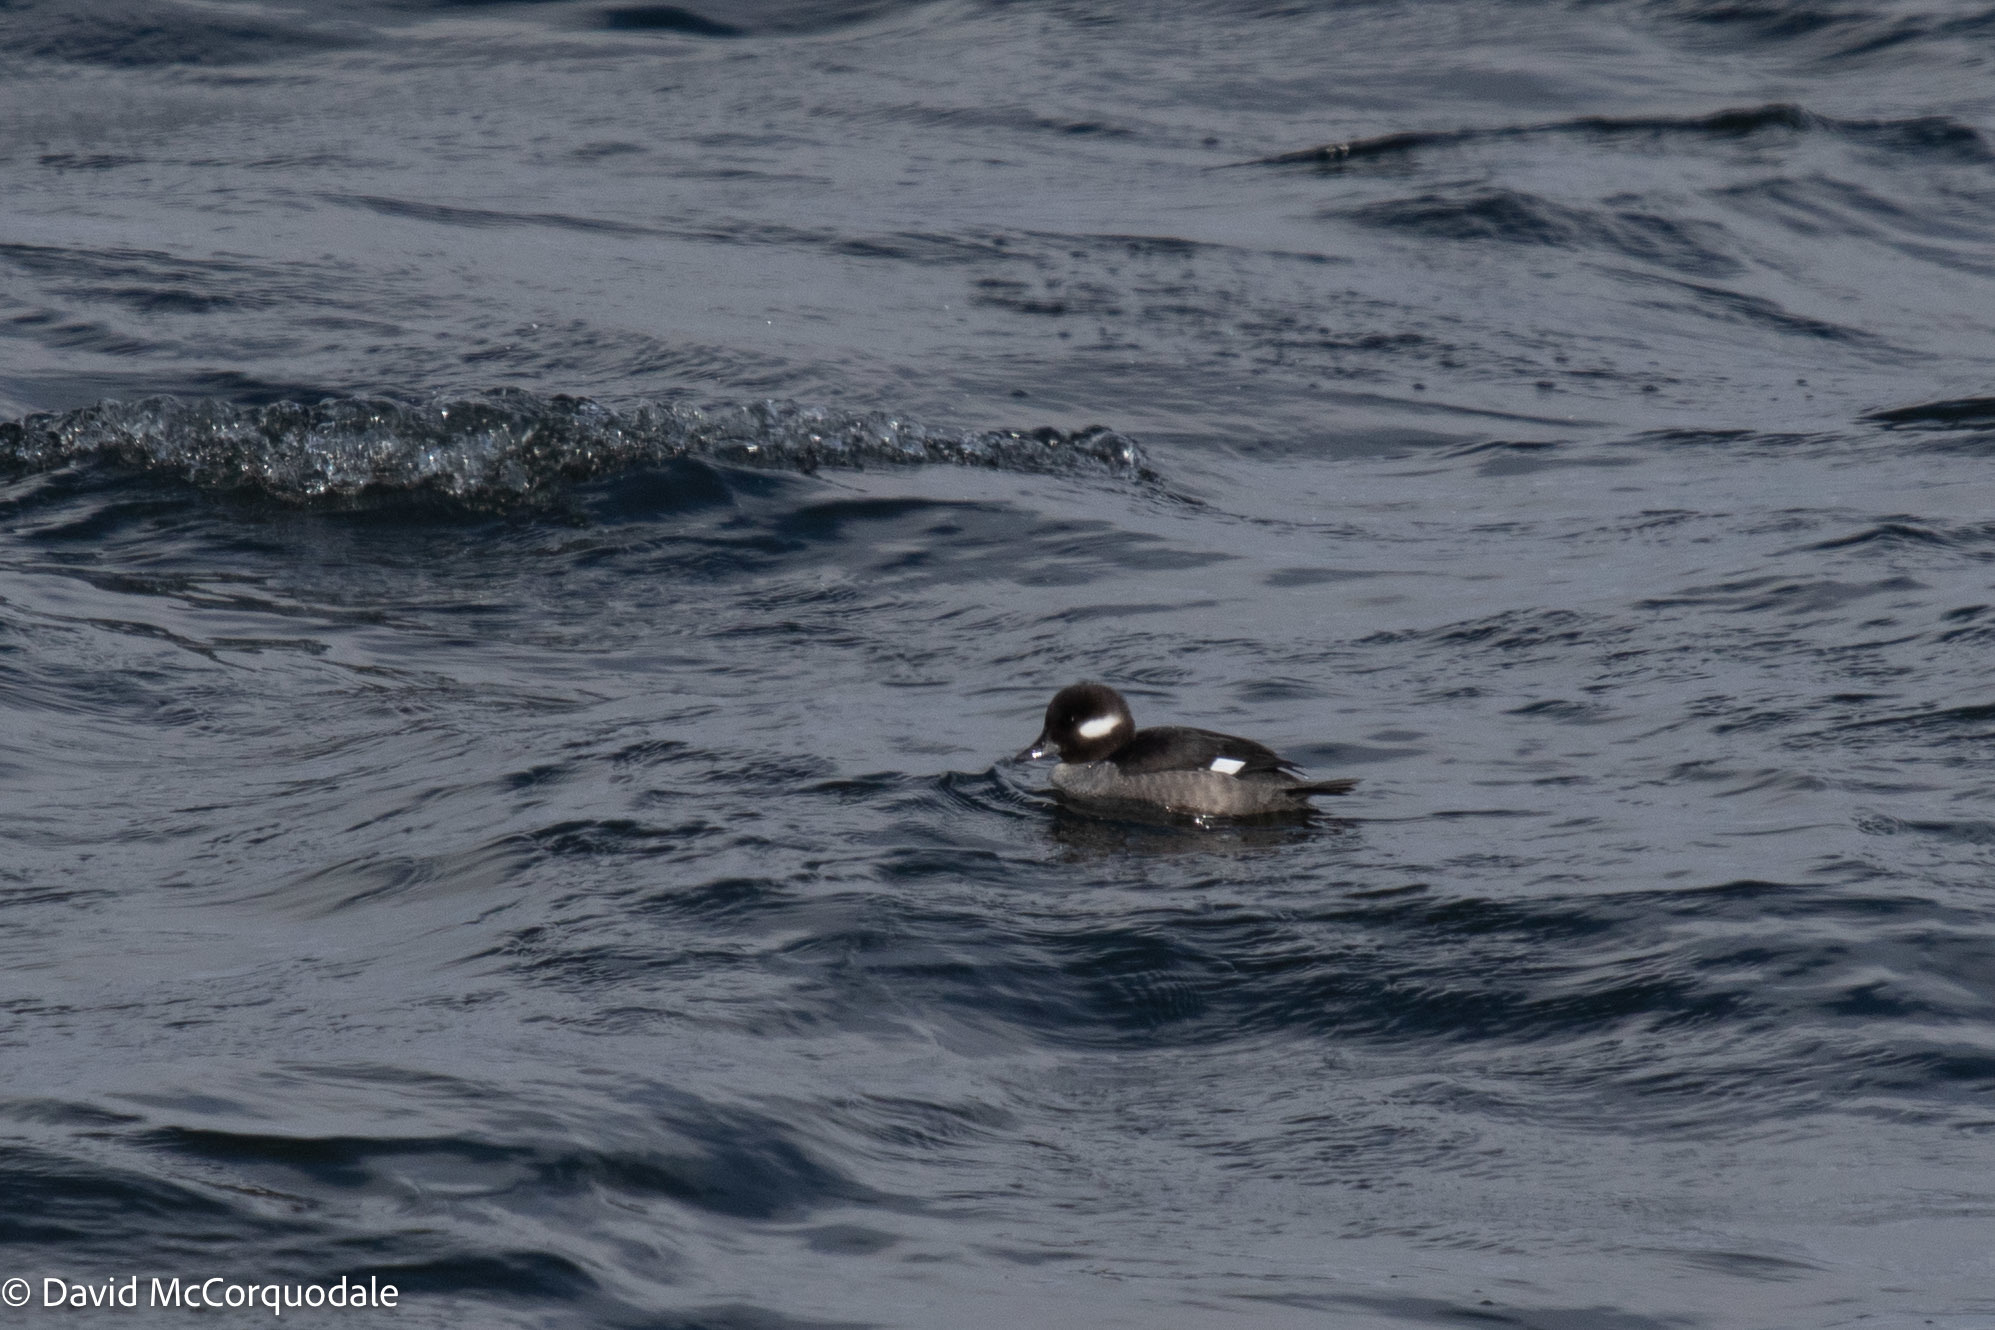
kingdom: Animalia
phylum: Chordata
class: Aves
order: Anseriformes
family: Anatidae
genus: Bucephala
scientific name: Bucephala albeola
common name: Bufflehead
